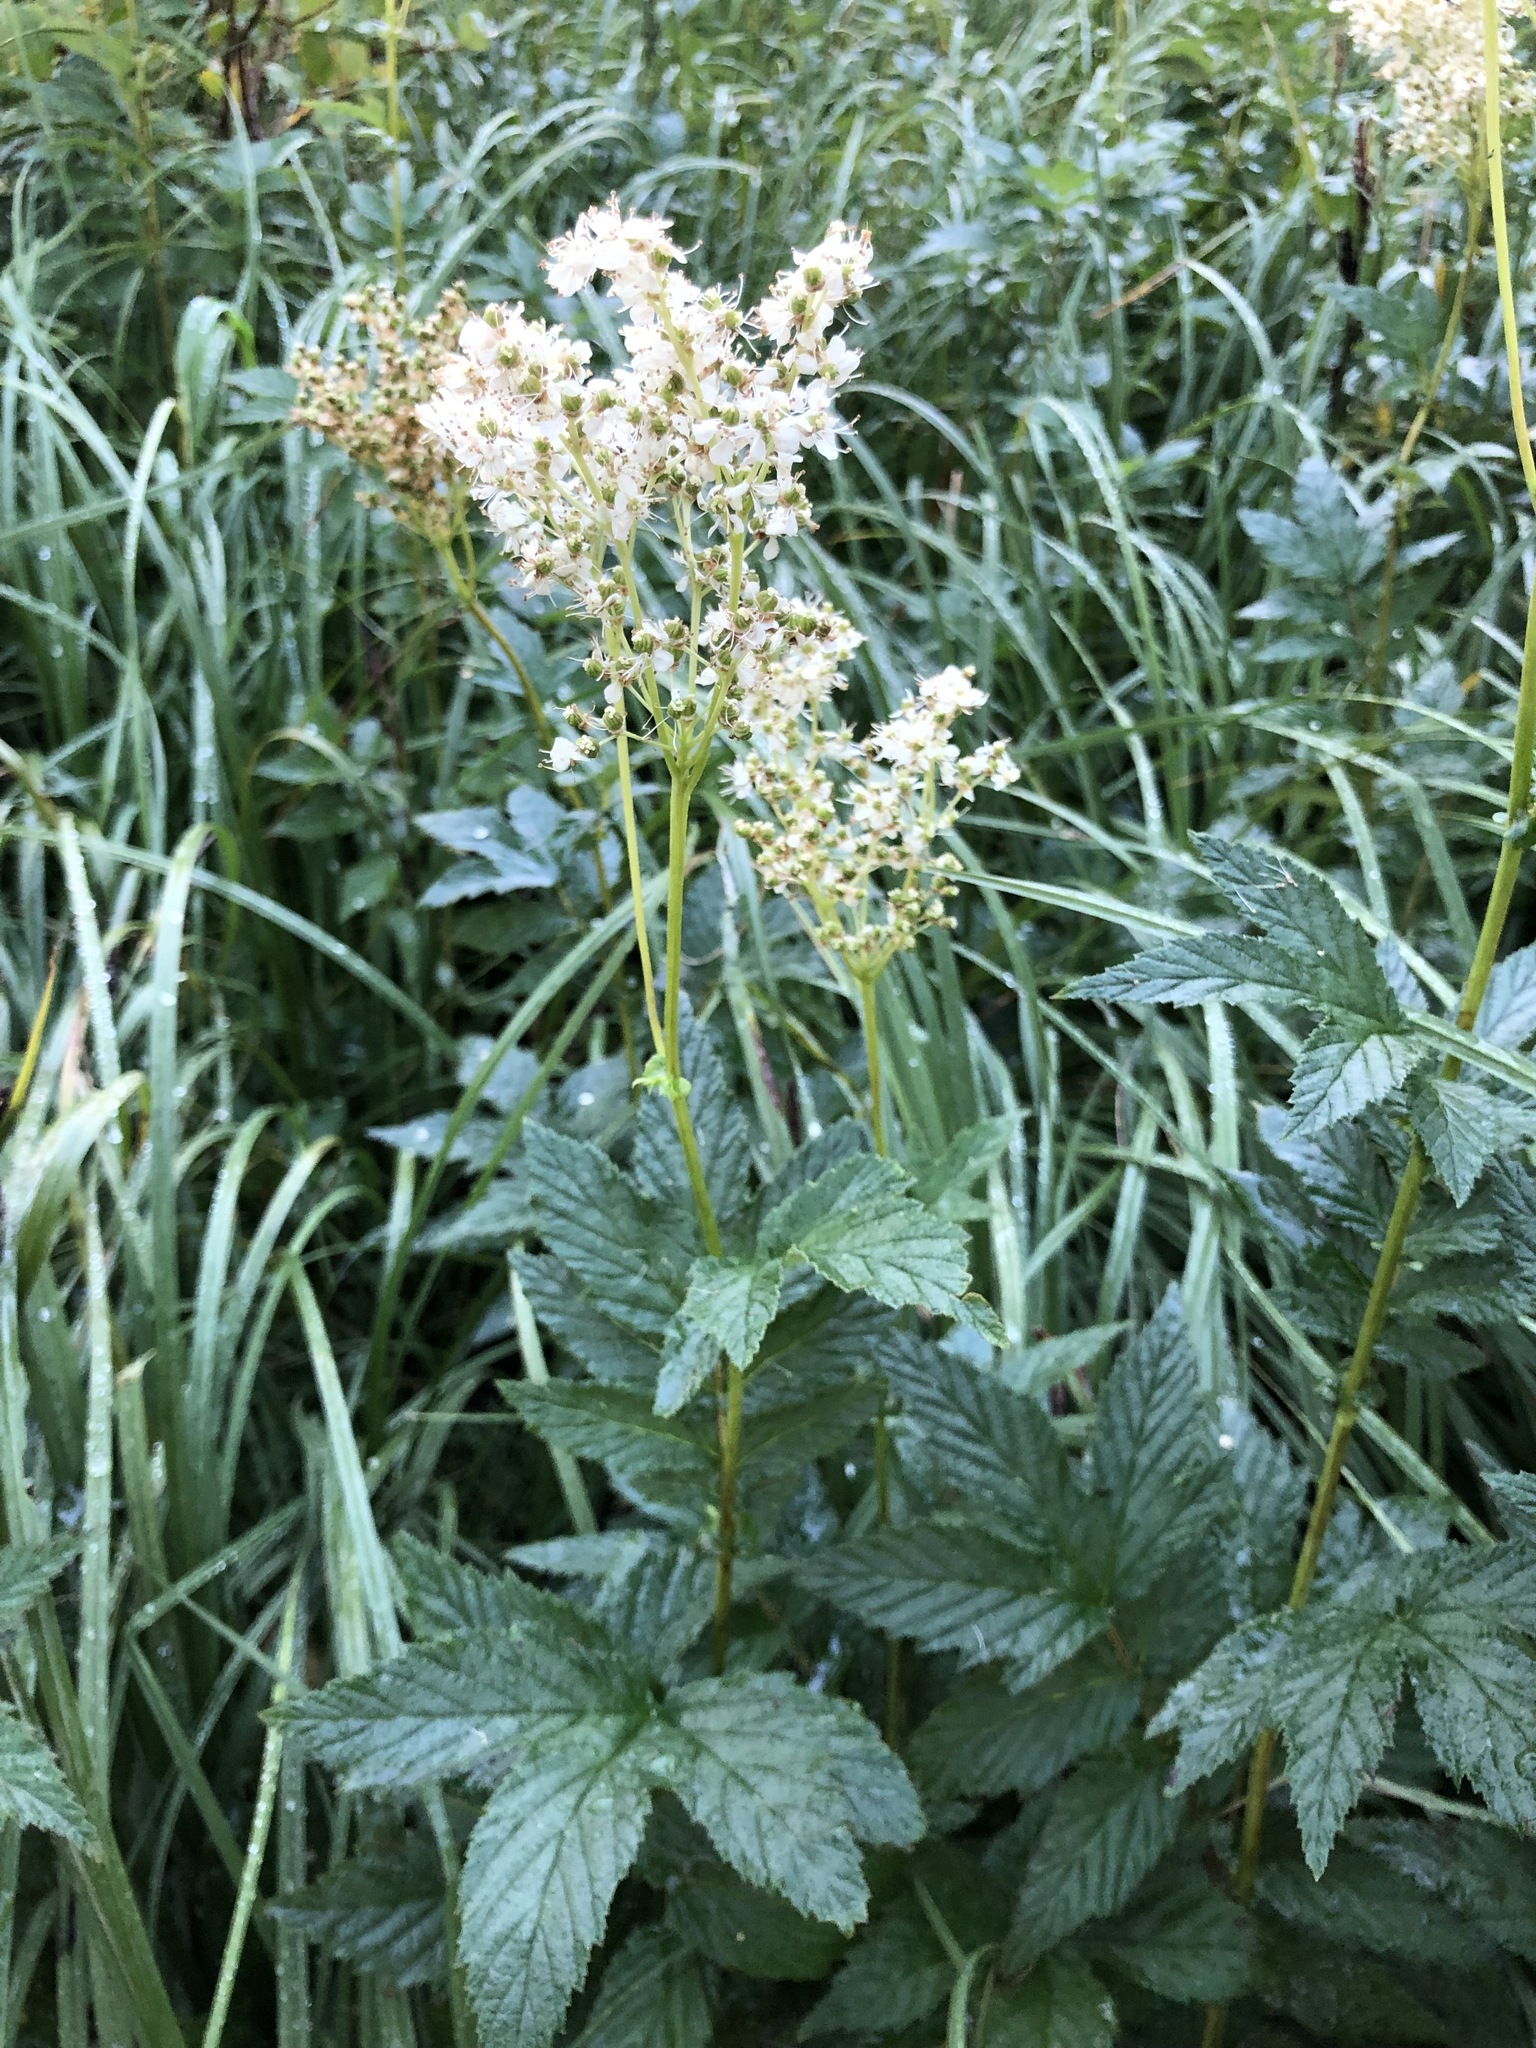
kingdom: Plantae
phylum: Tracheophyta
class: Magnoliopsida
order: Rosales
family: Rosaceae
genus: Filipendula
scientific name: Filipendula ulmaria
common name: Meadowsweet
